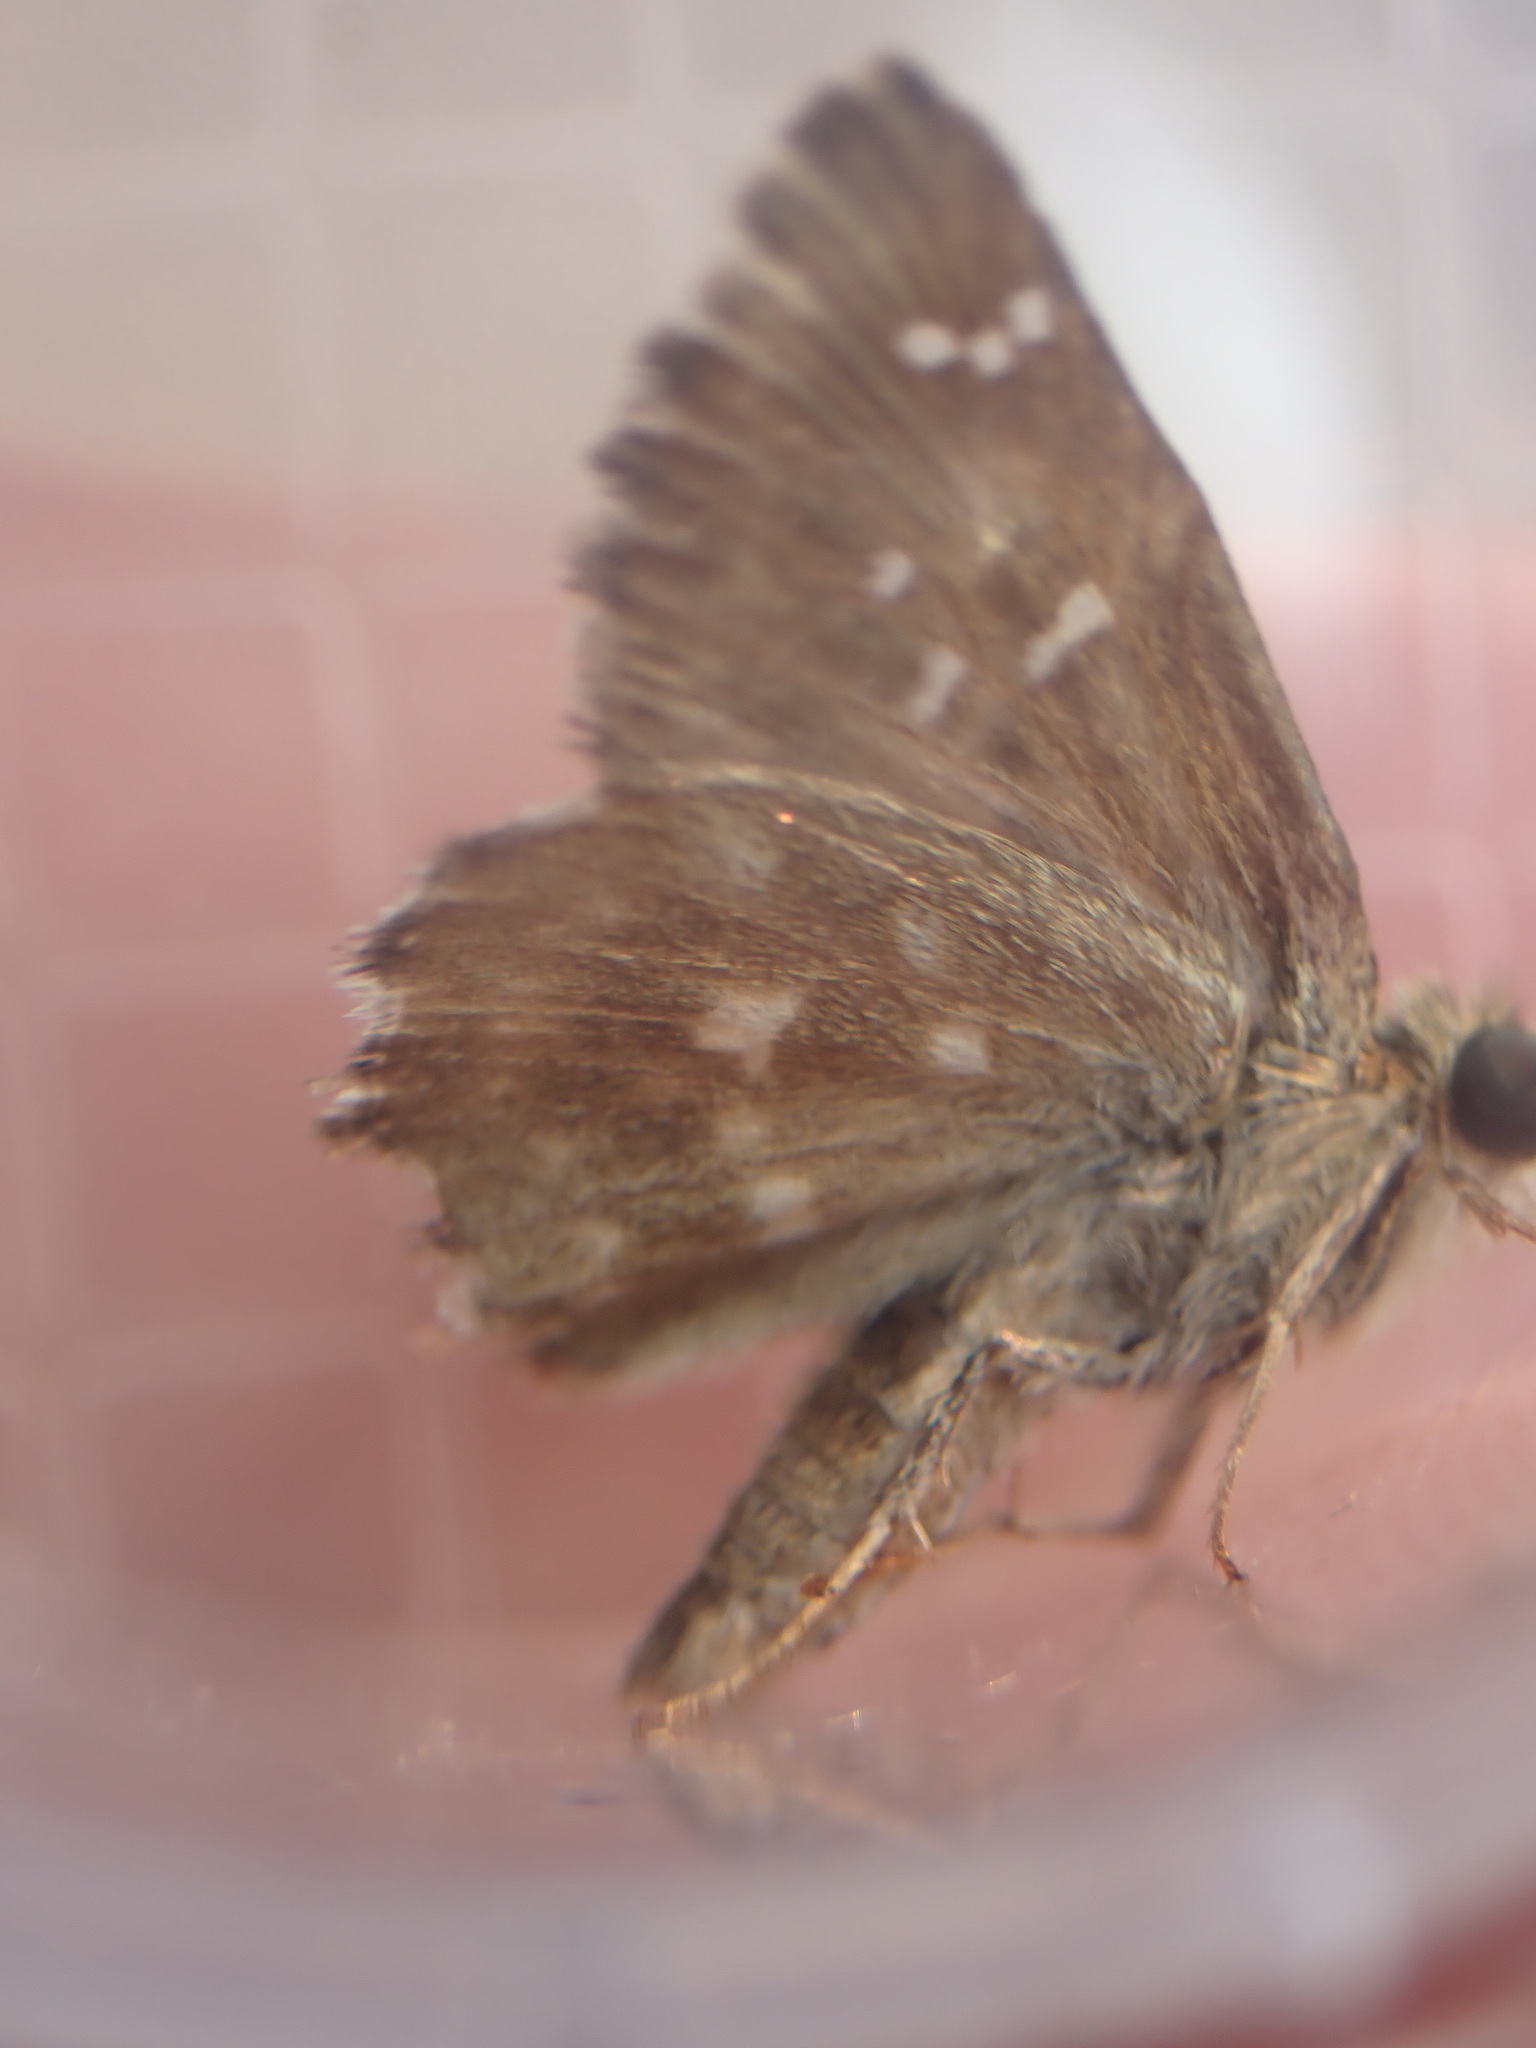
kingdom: Animalia
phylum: Arthropoda
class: Insecta
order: Lepidoptera
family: Hesperiidae
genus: Carcharodus
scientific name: Carcharodus alceae
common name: Mallow skipper
